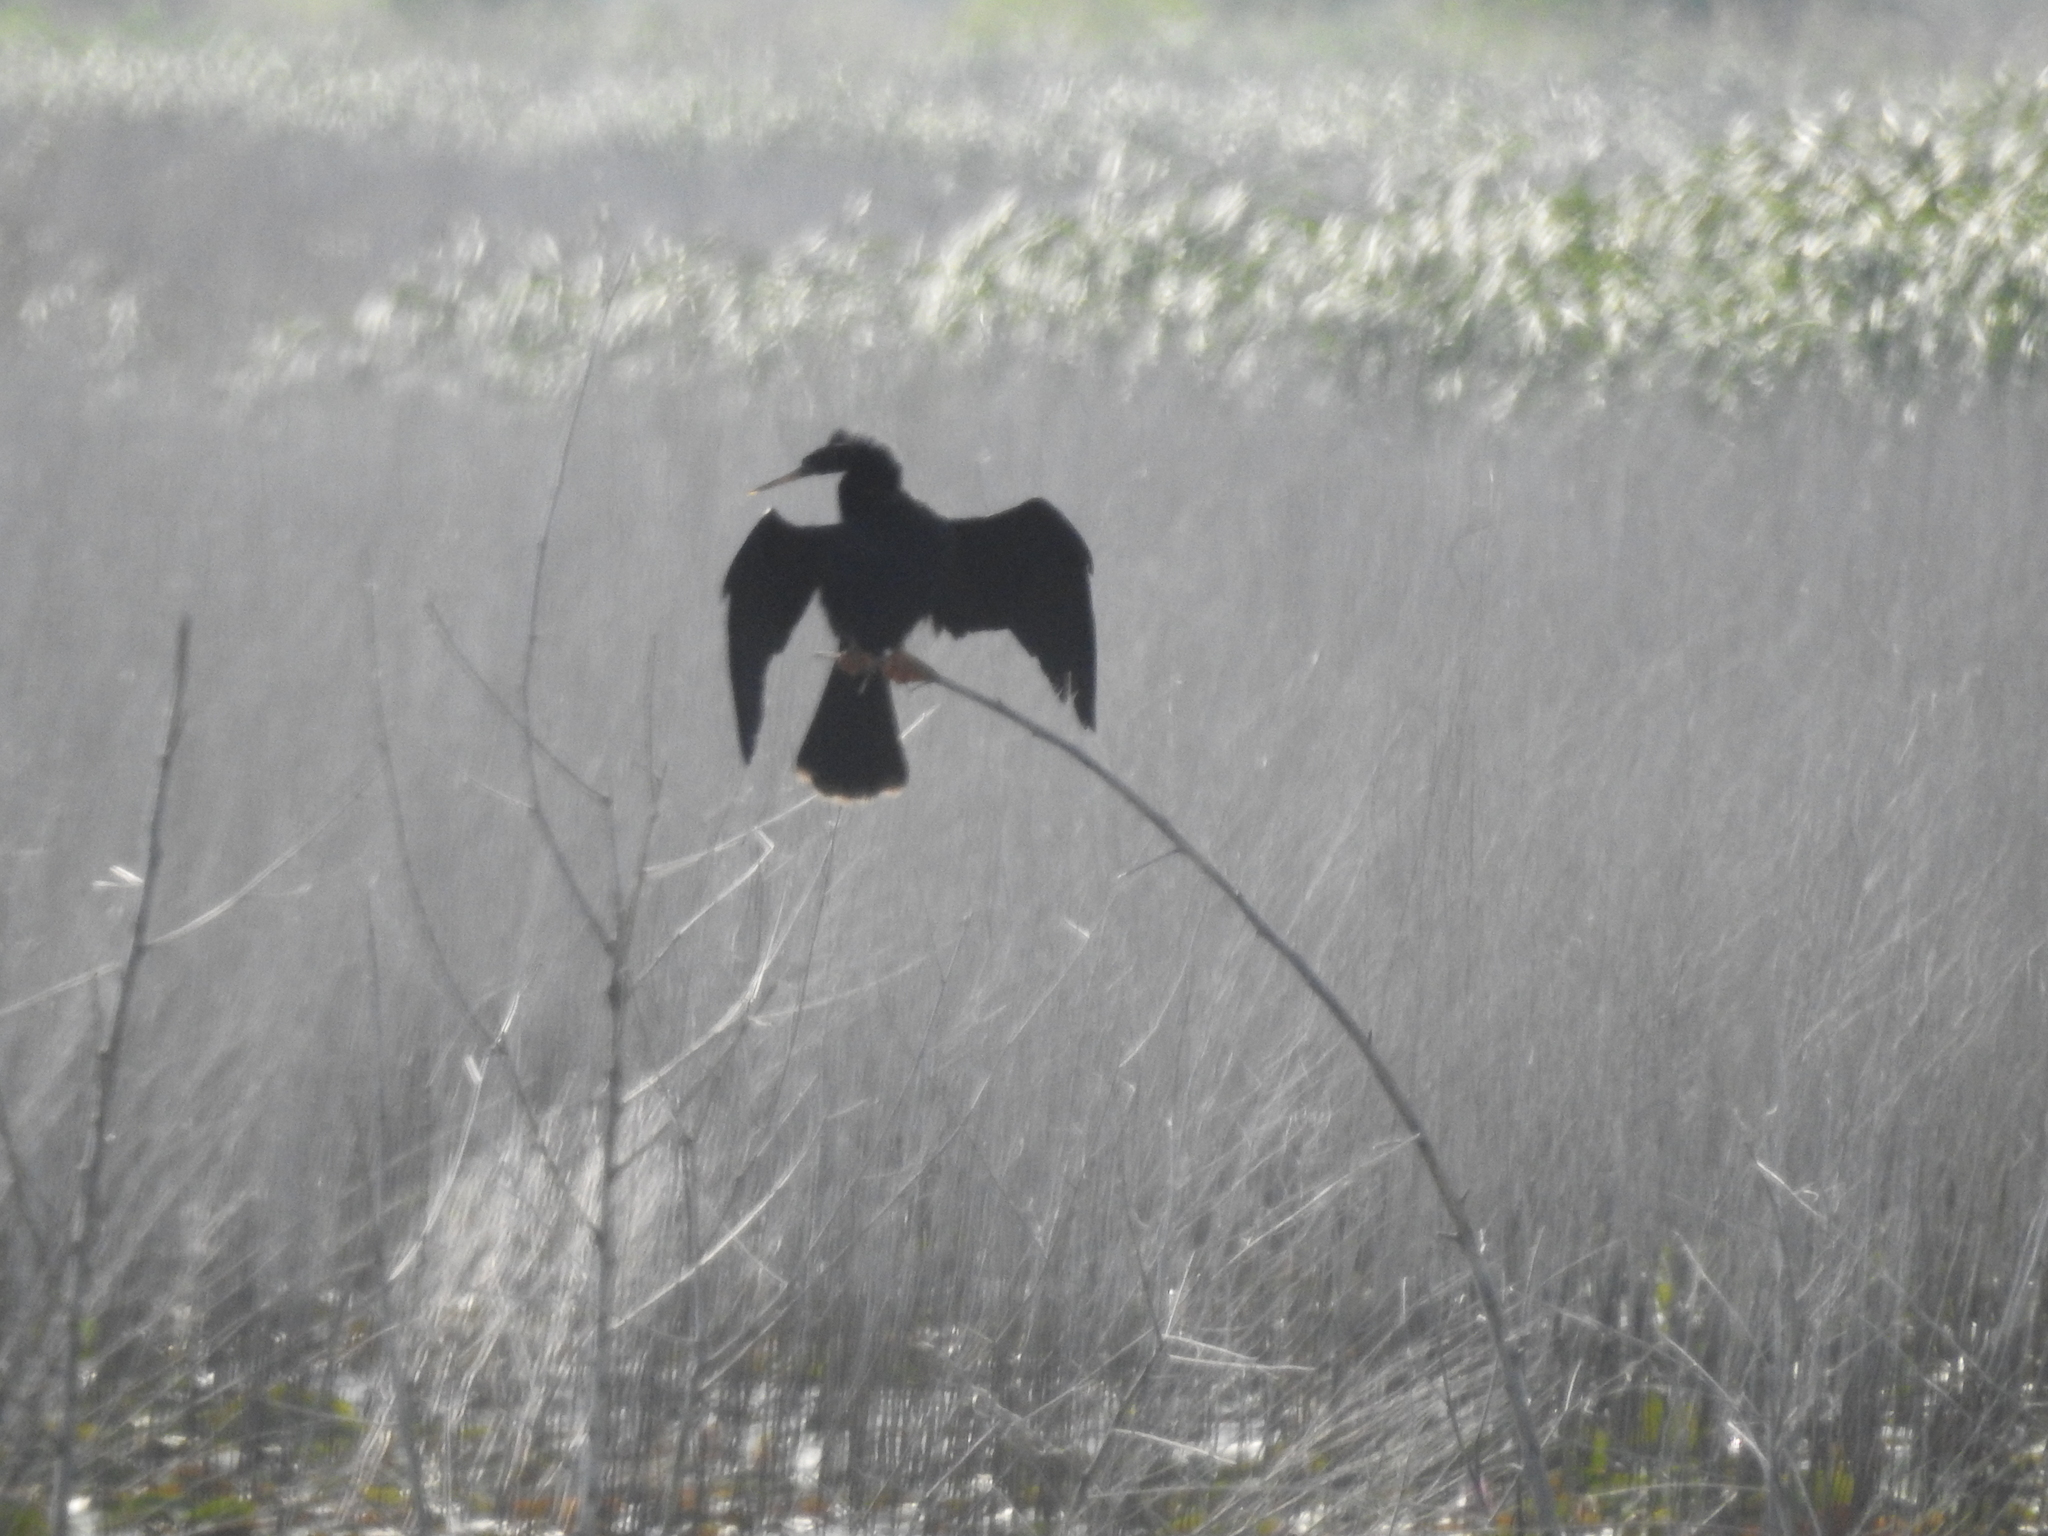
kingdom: Animalia
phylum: Chordata
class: Aves
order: Suliformes
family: Anhingidae
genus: Anhinga
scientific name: Anhinga anhinga
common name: Anhinga
